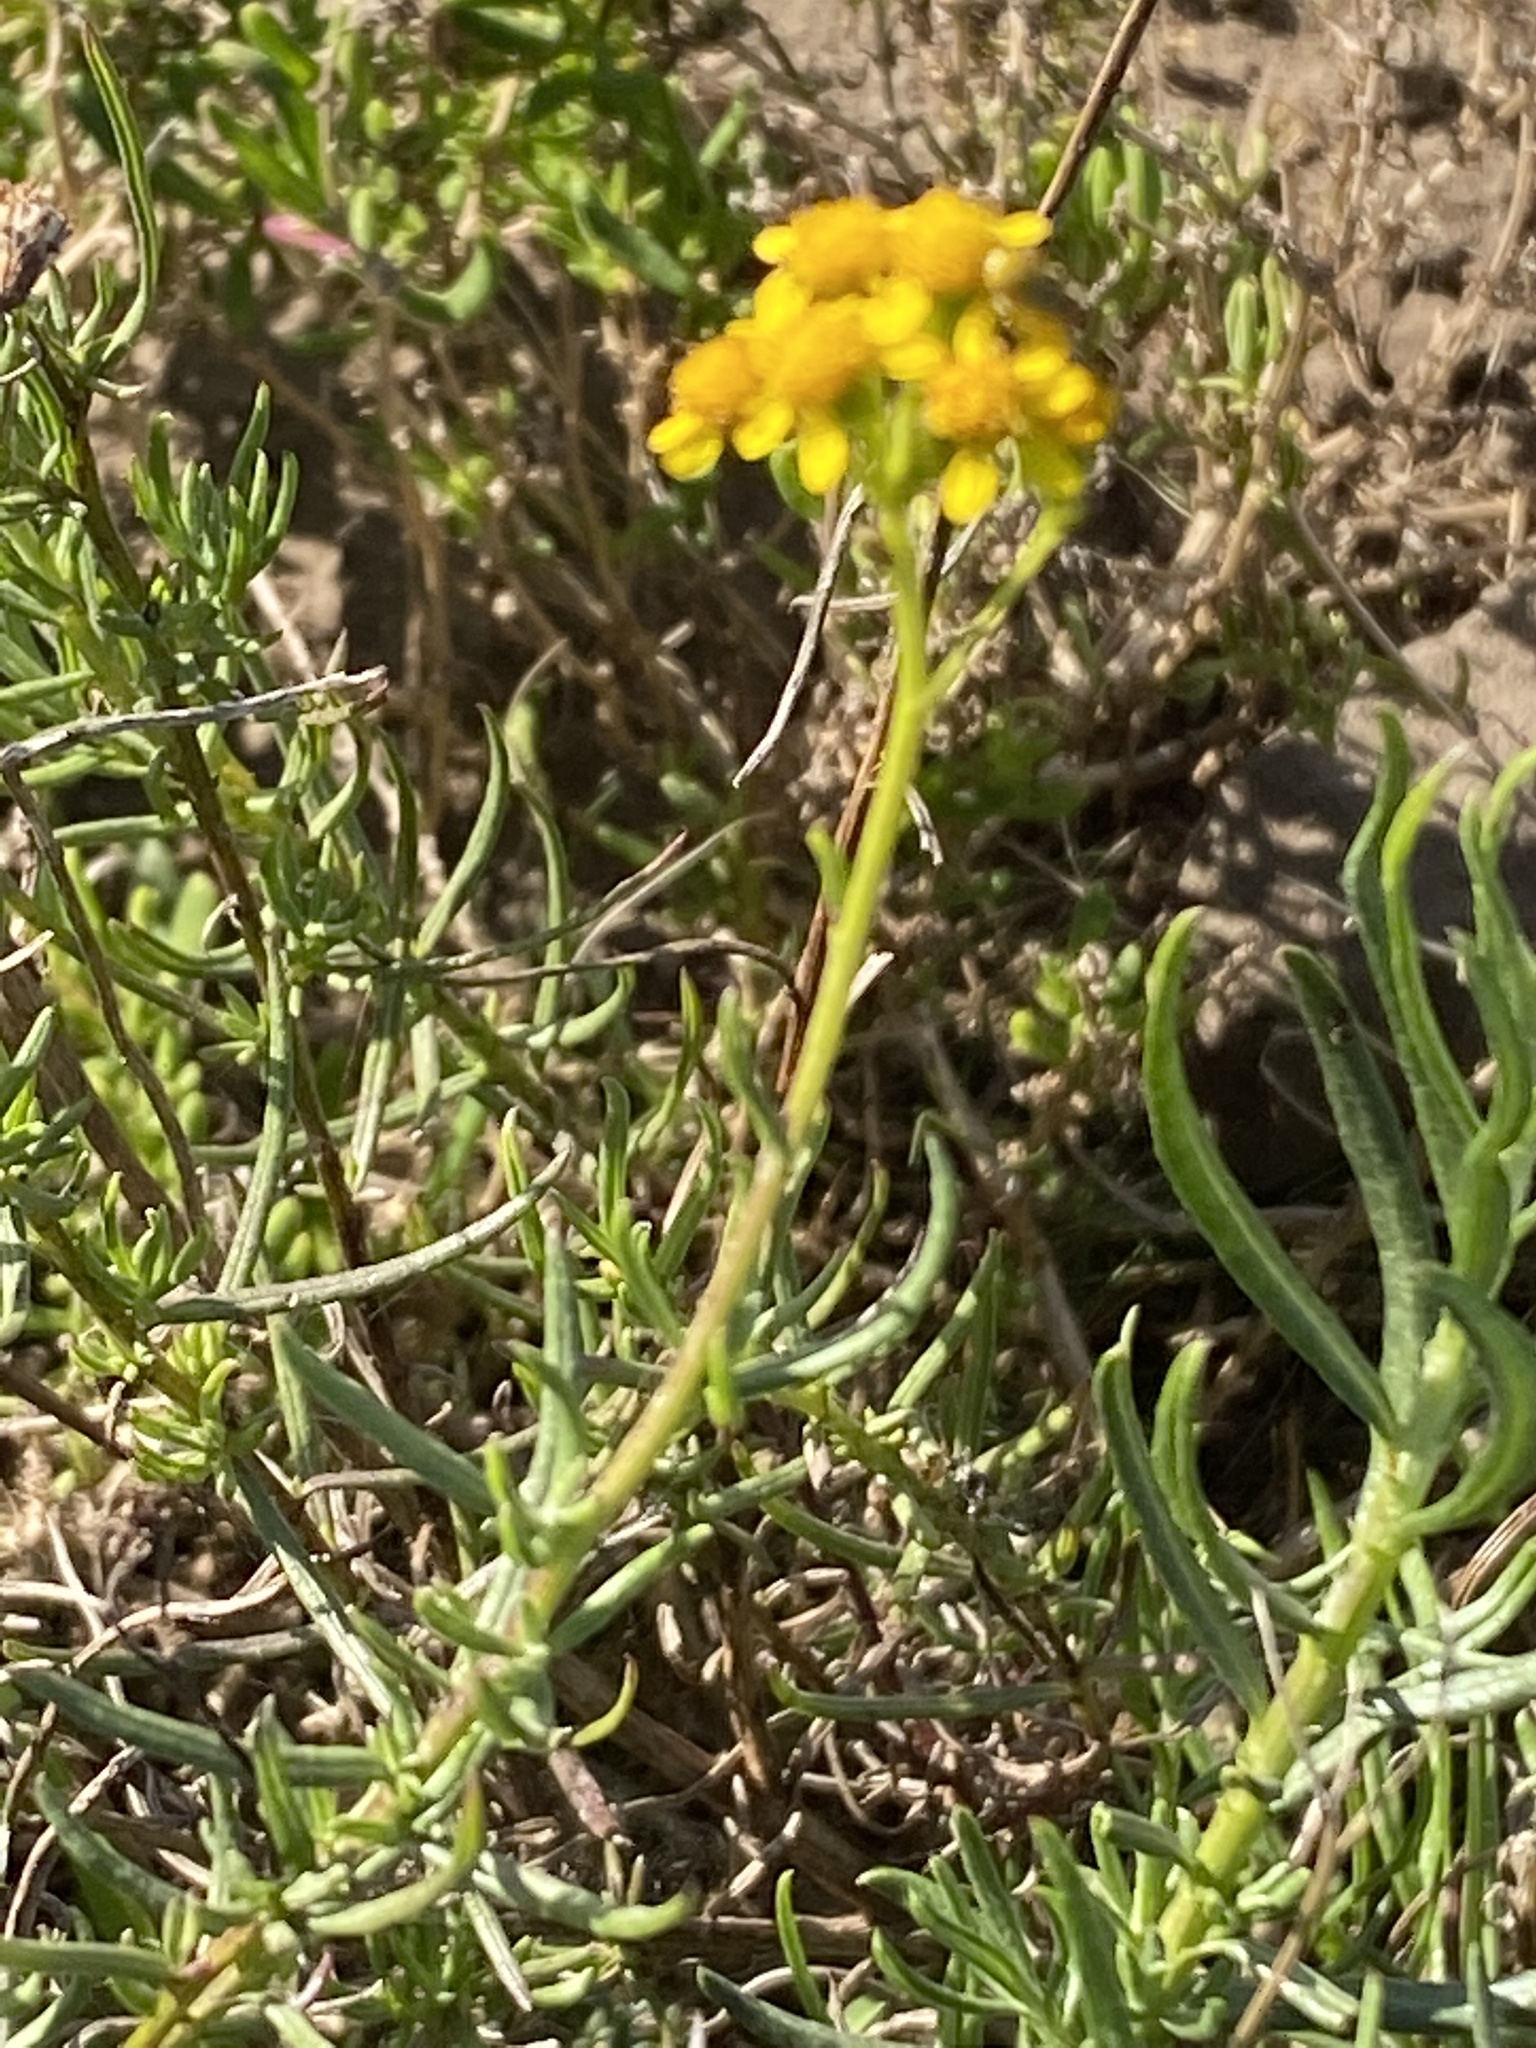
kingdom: Plantae
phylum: Tracheophyta
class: Magnoliopsida
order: Asterales
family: Asteraceae
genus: Senecio
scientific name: Senecio burchellii
